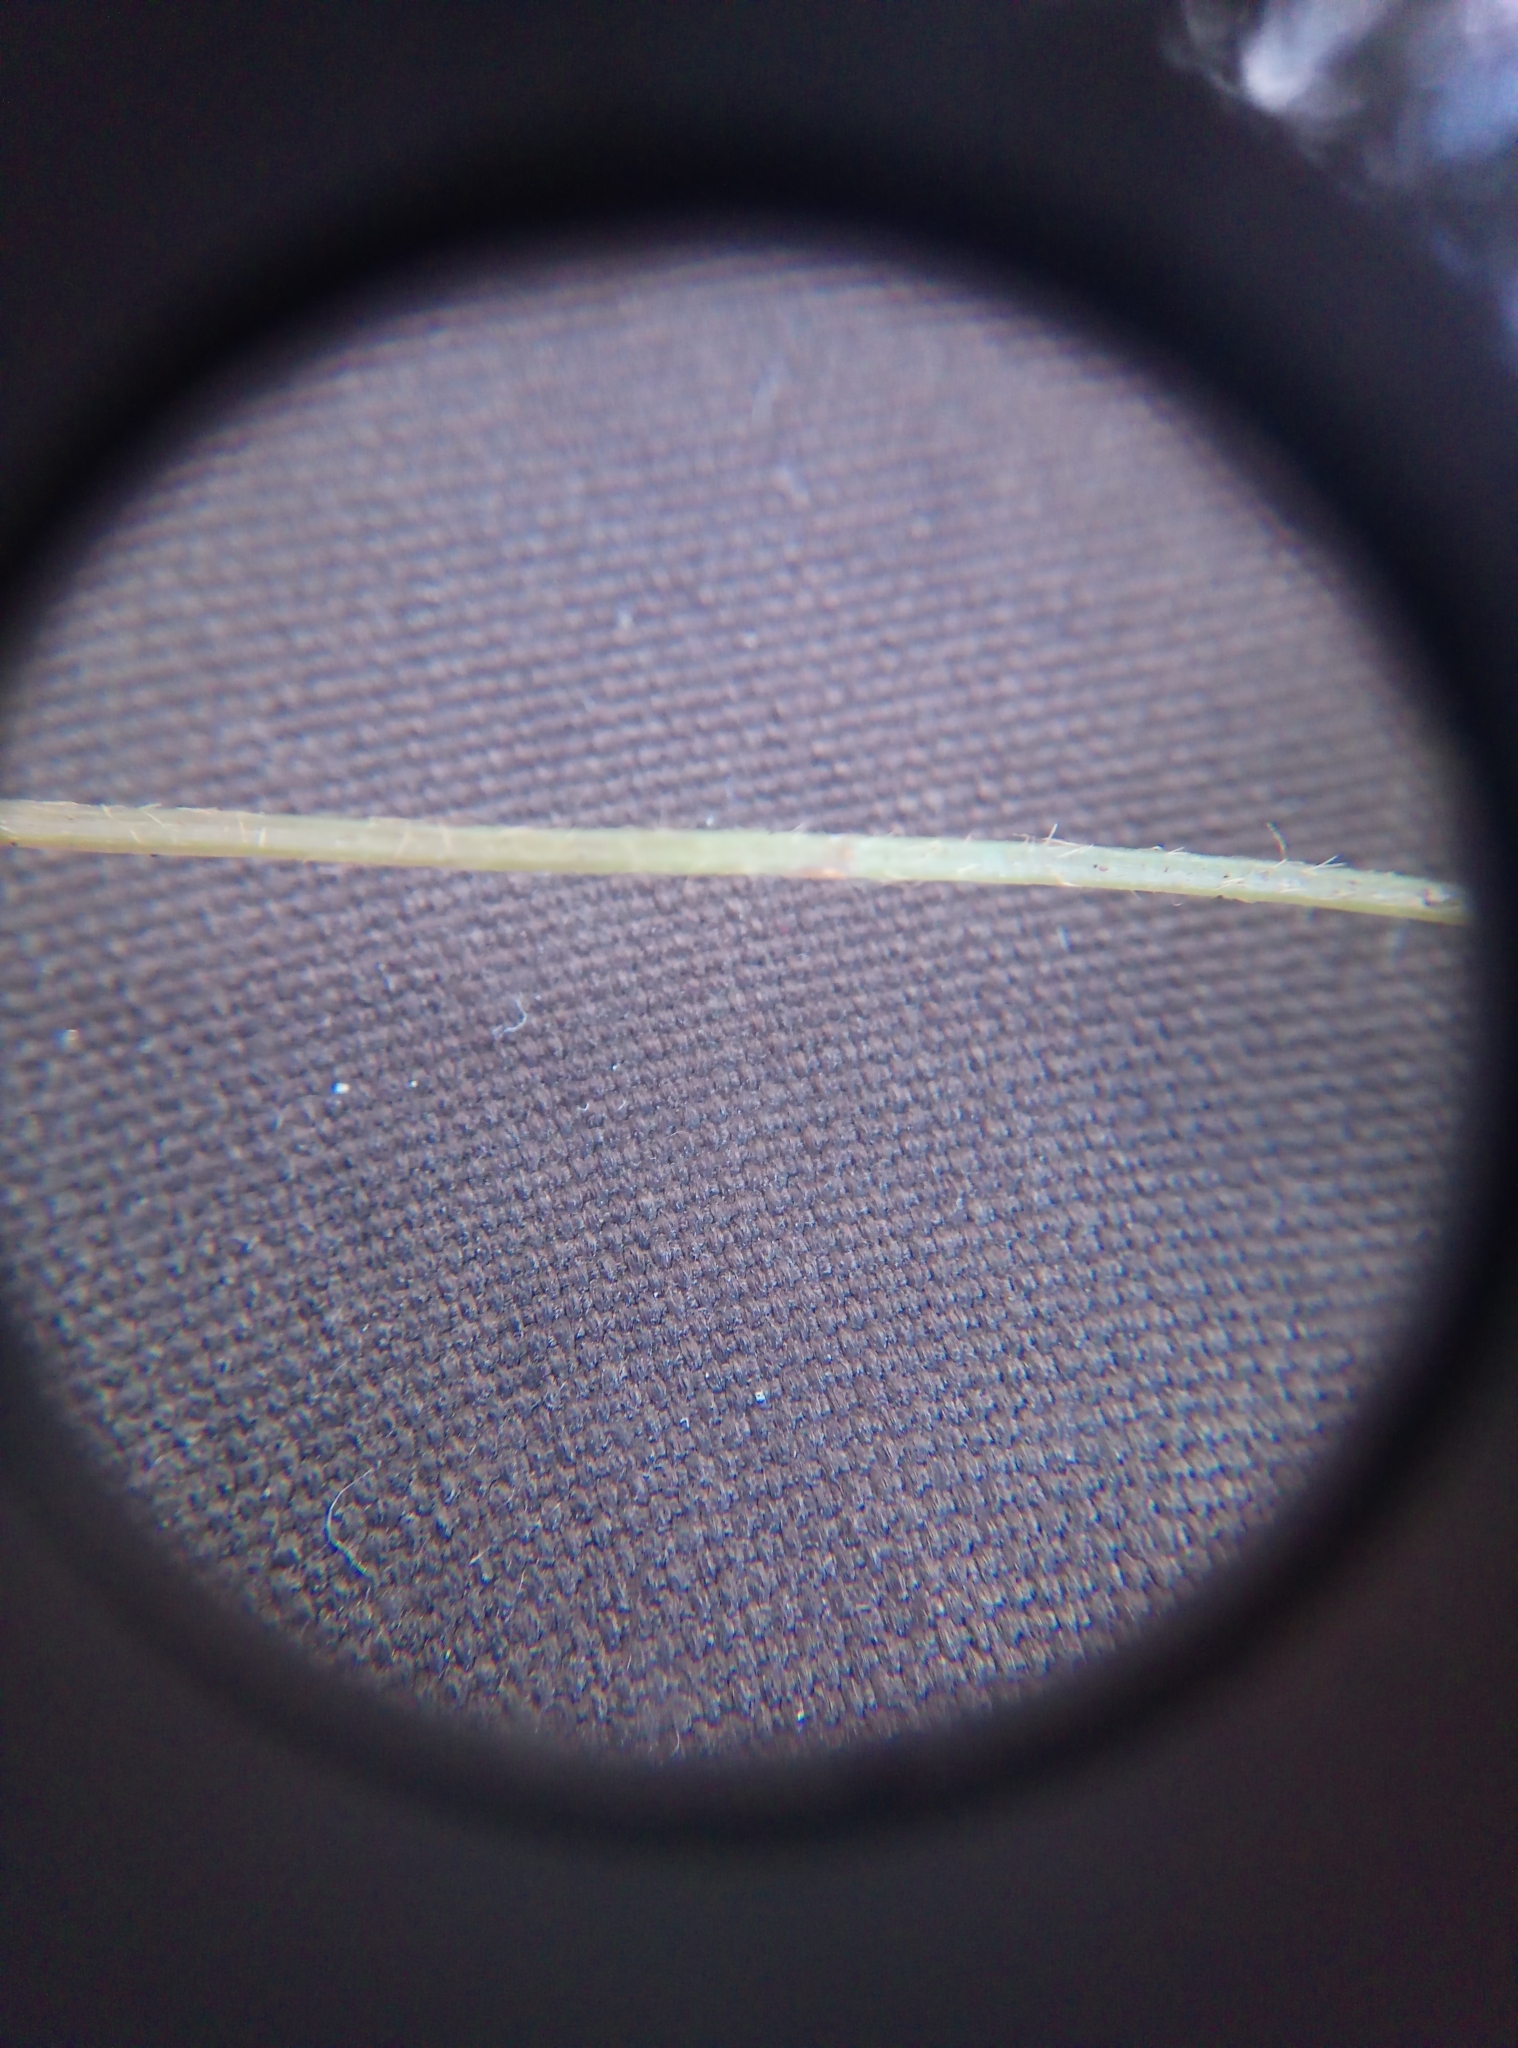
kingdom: Plantae
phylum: Tracheophyta
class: Magnoliopsida
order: Oxalidales
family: Oxalidaceae
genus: Oxalis
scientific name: Oxalis acetosella
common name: Wood-sorrel
